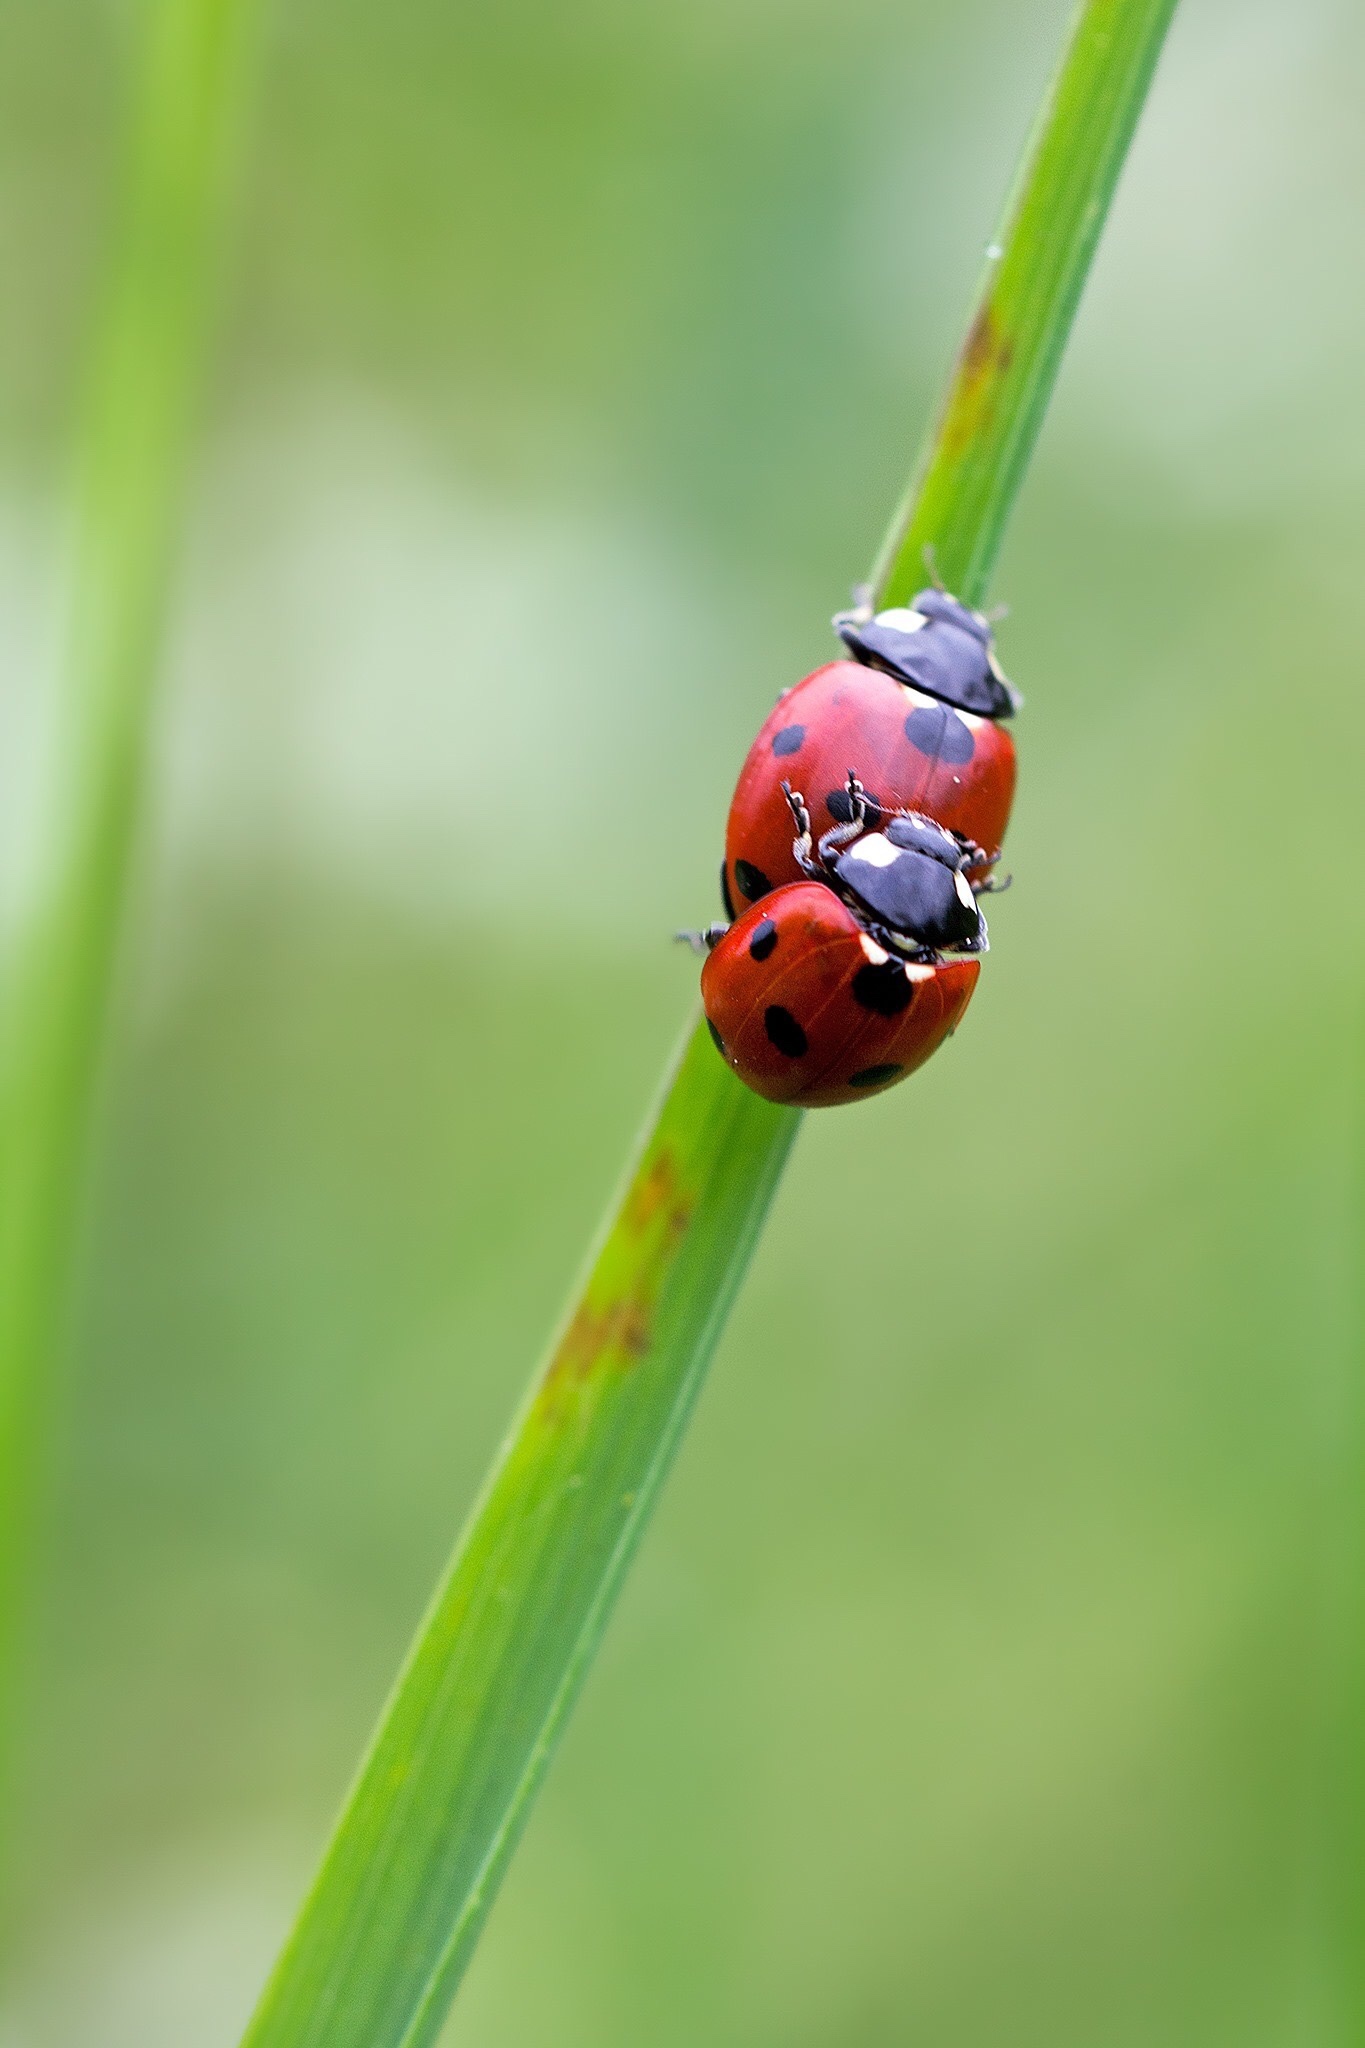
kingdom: Animalia
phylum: Arthropoda
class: Insecta
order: Coleoptera
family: Coccinellidae
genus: Coccinella
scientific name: Coccinella septempunctata
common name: Sevenspotted lady beetle
